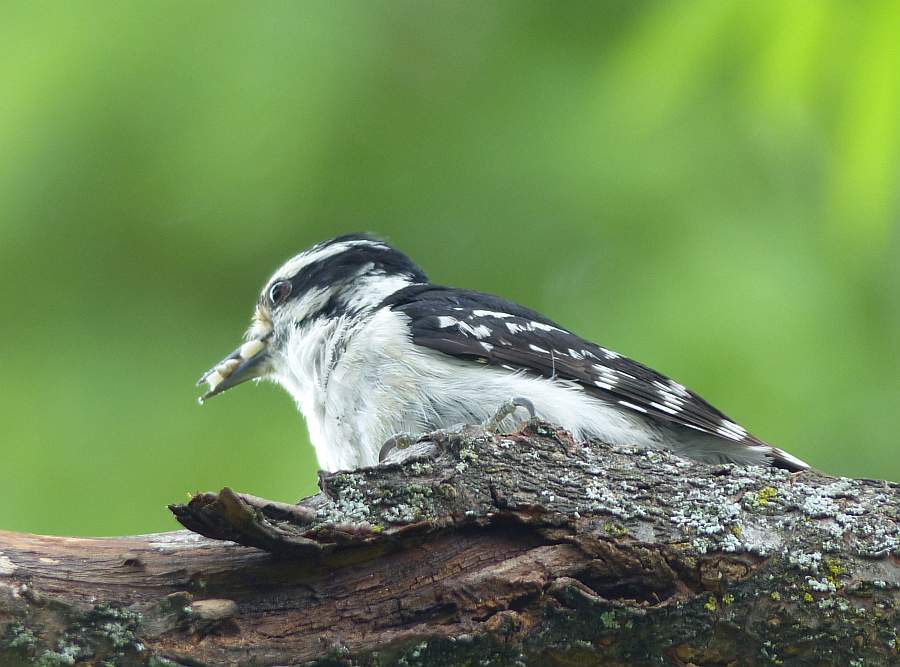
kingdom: Animalia
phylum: Chordata
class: Aves
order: Piciformes
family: Picidae
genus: Dryobates
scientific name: Dryobates pubescens
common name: Downy woodpecker
